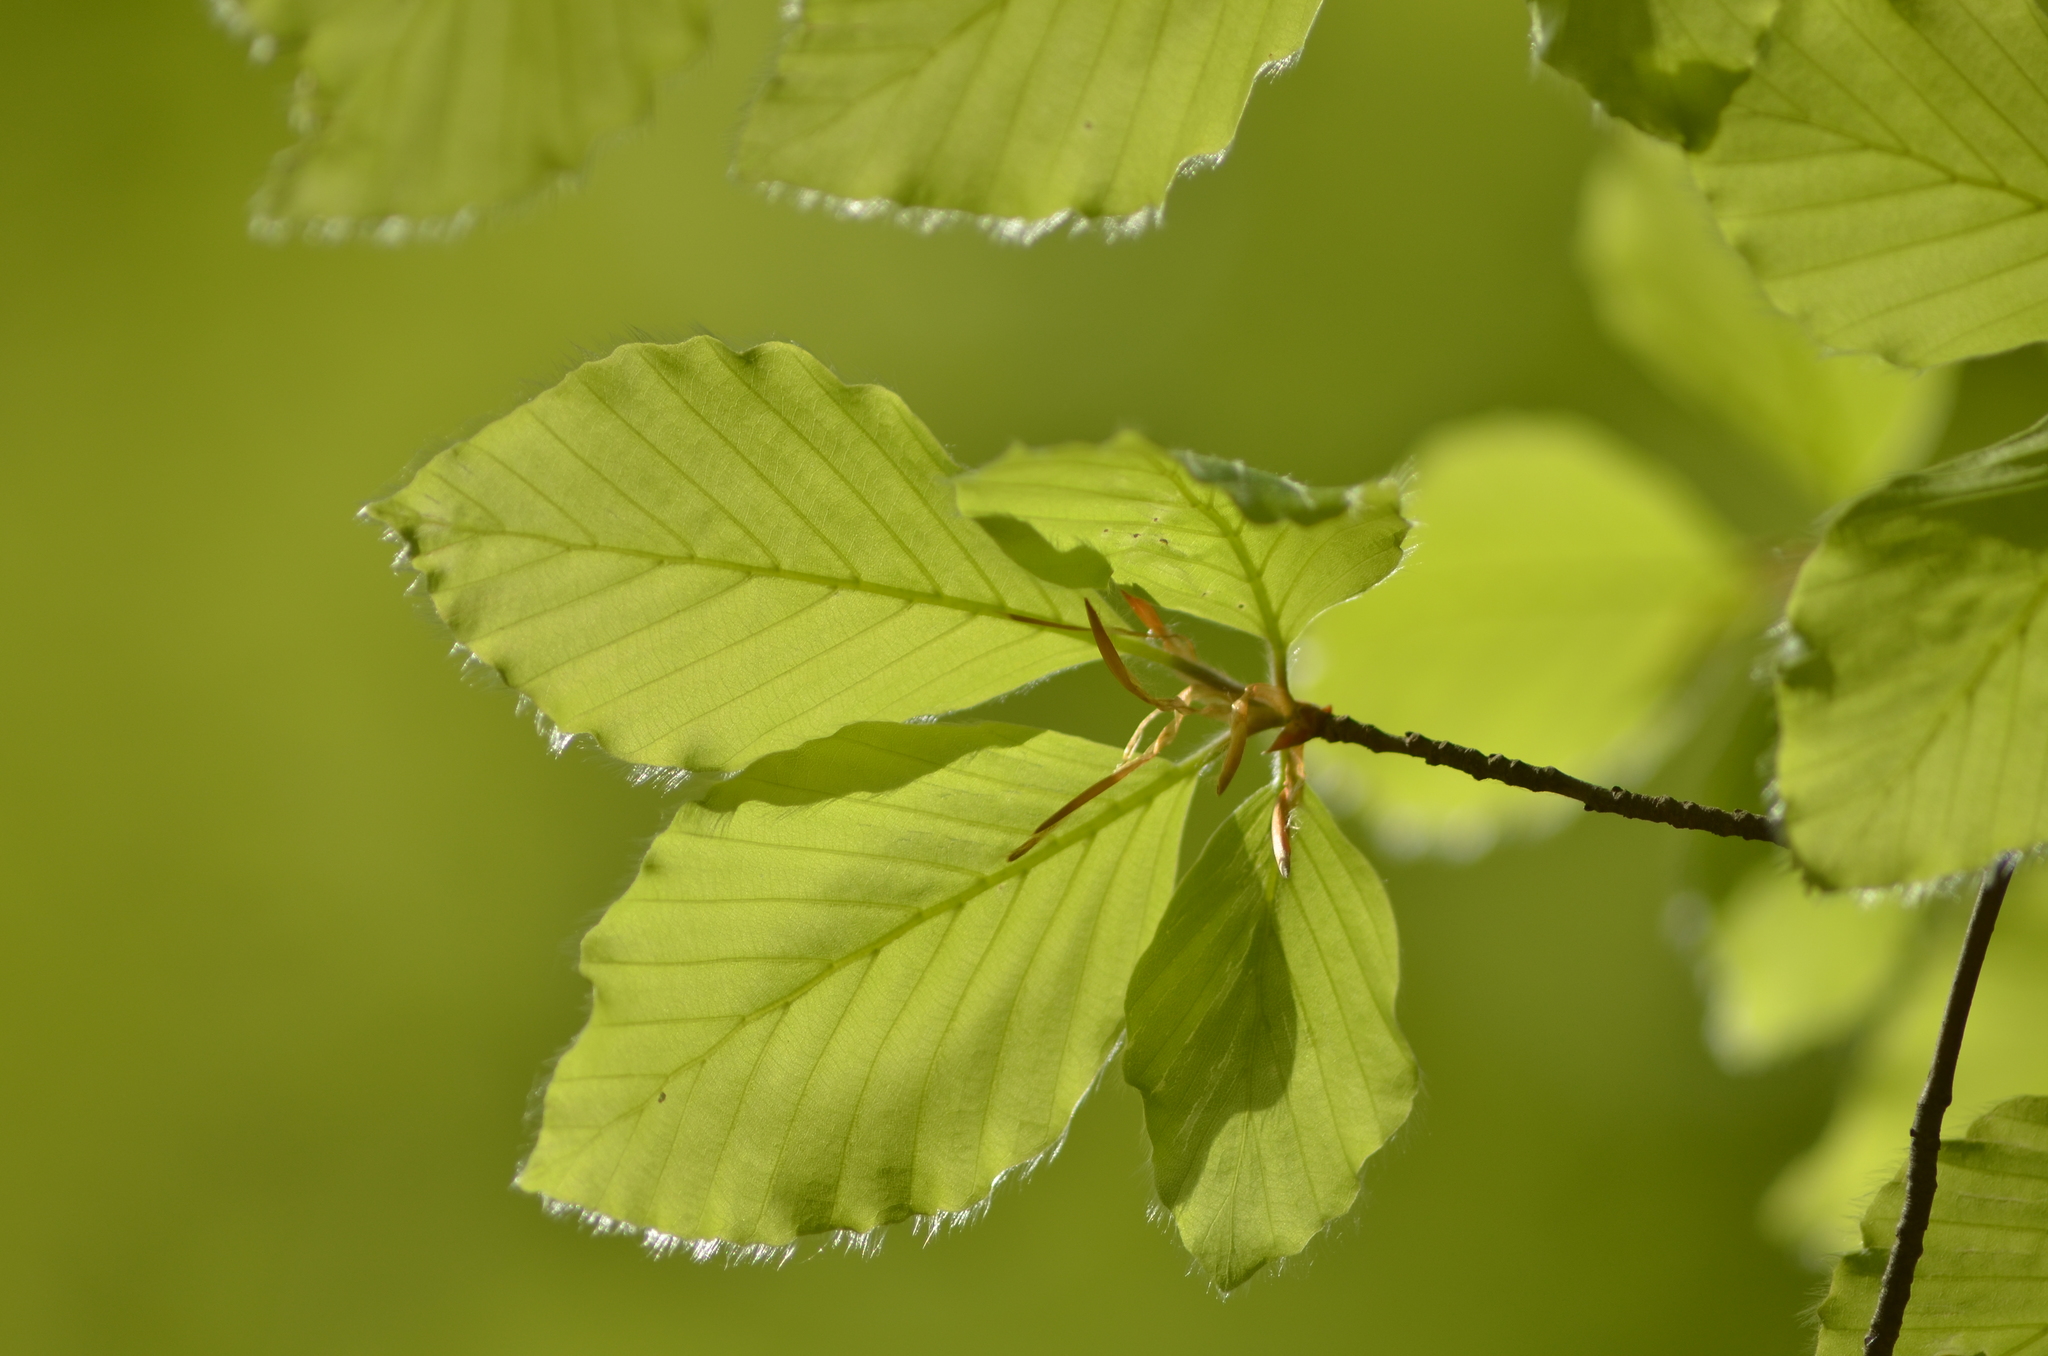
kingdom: Plantae
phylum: Tracheophyta
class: Magnoliopsida
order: Fagales
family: Fagaceae
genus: Fagus
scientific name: Fagus sylvatica
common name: Beech
